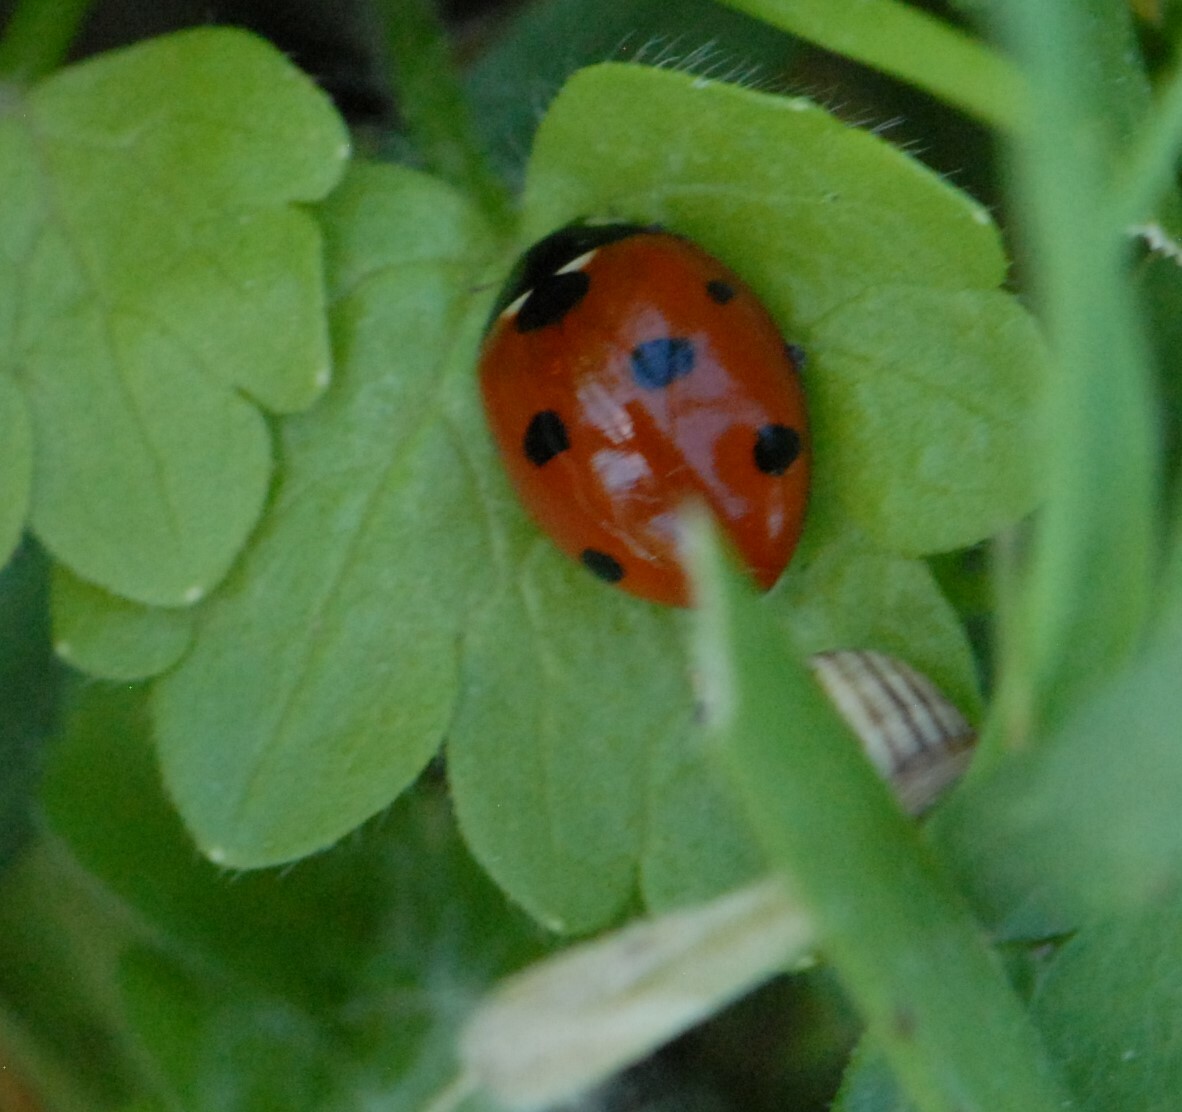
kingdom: Animalia
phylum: Arthropoda
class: Insecta
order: Coleoptera
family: Coccinellidae
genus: Coccinella
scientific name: Coccinella septempunctata
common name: Sevenspotted lady beetle
